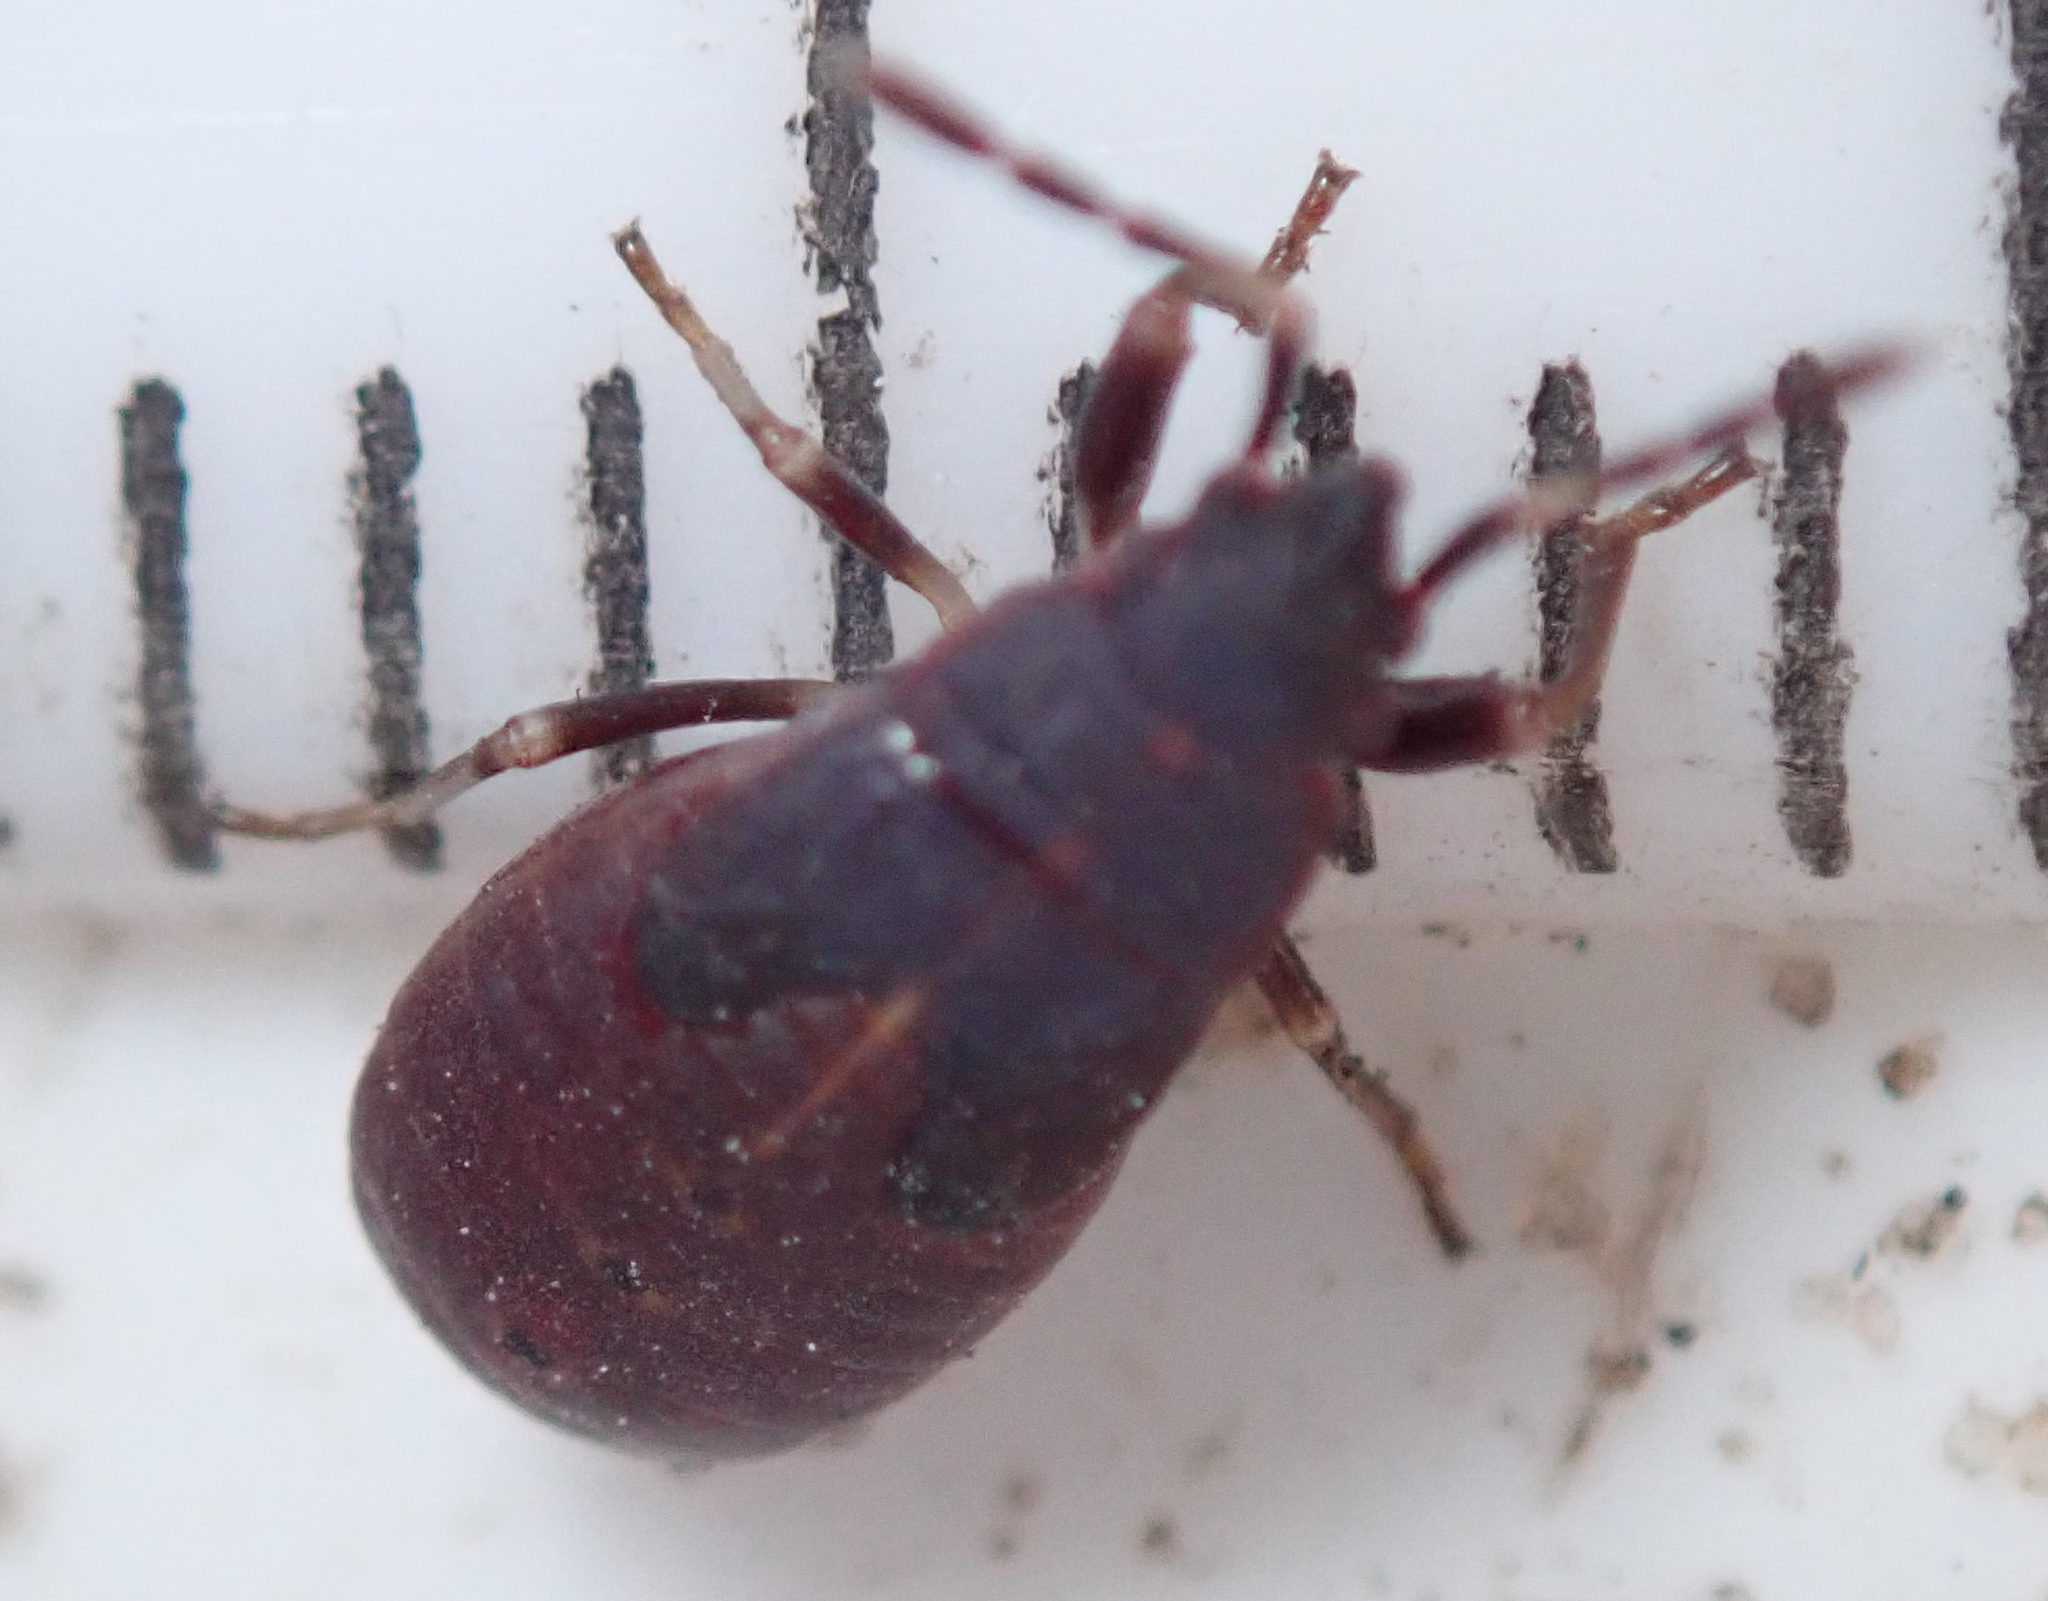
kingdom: Animalia
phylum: Arthropoda
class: Insecta
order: Hemiptera
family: Pyrrhocoridae
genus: Scantius
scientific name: Scantius forsteri
